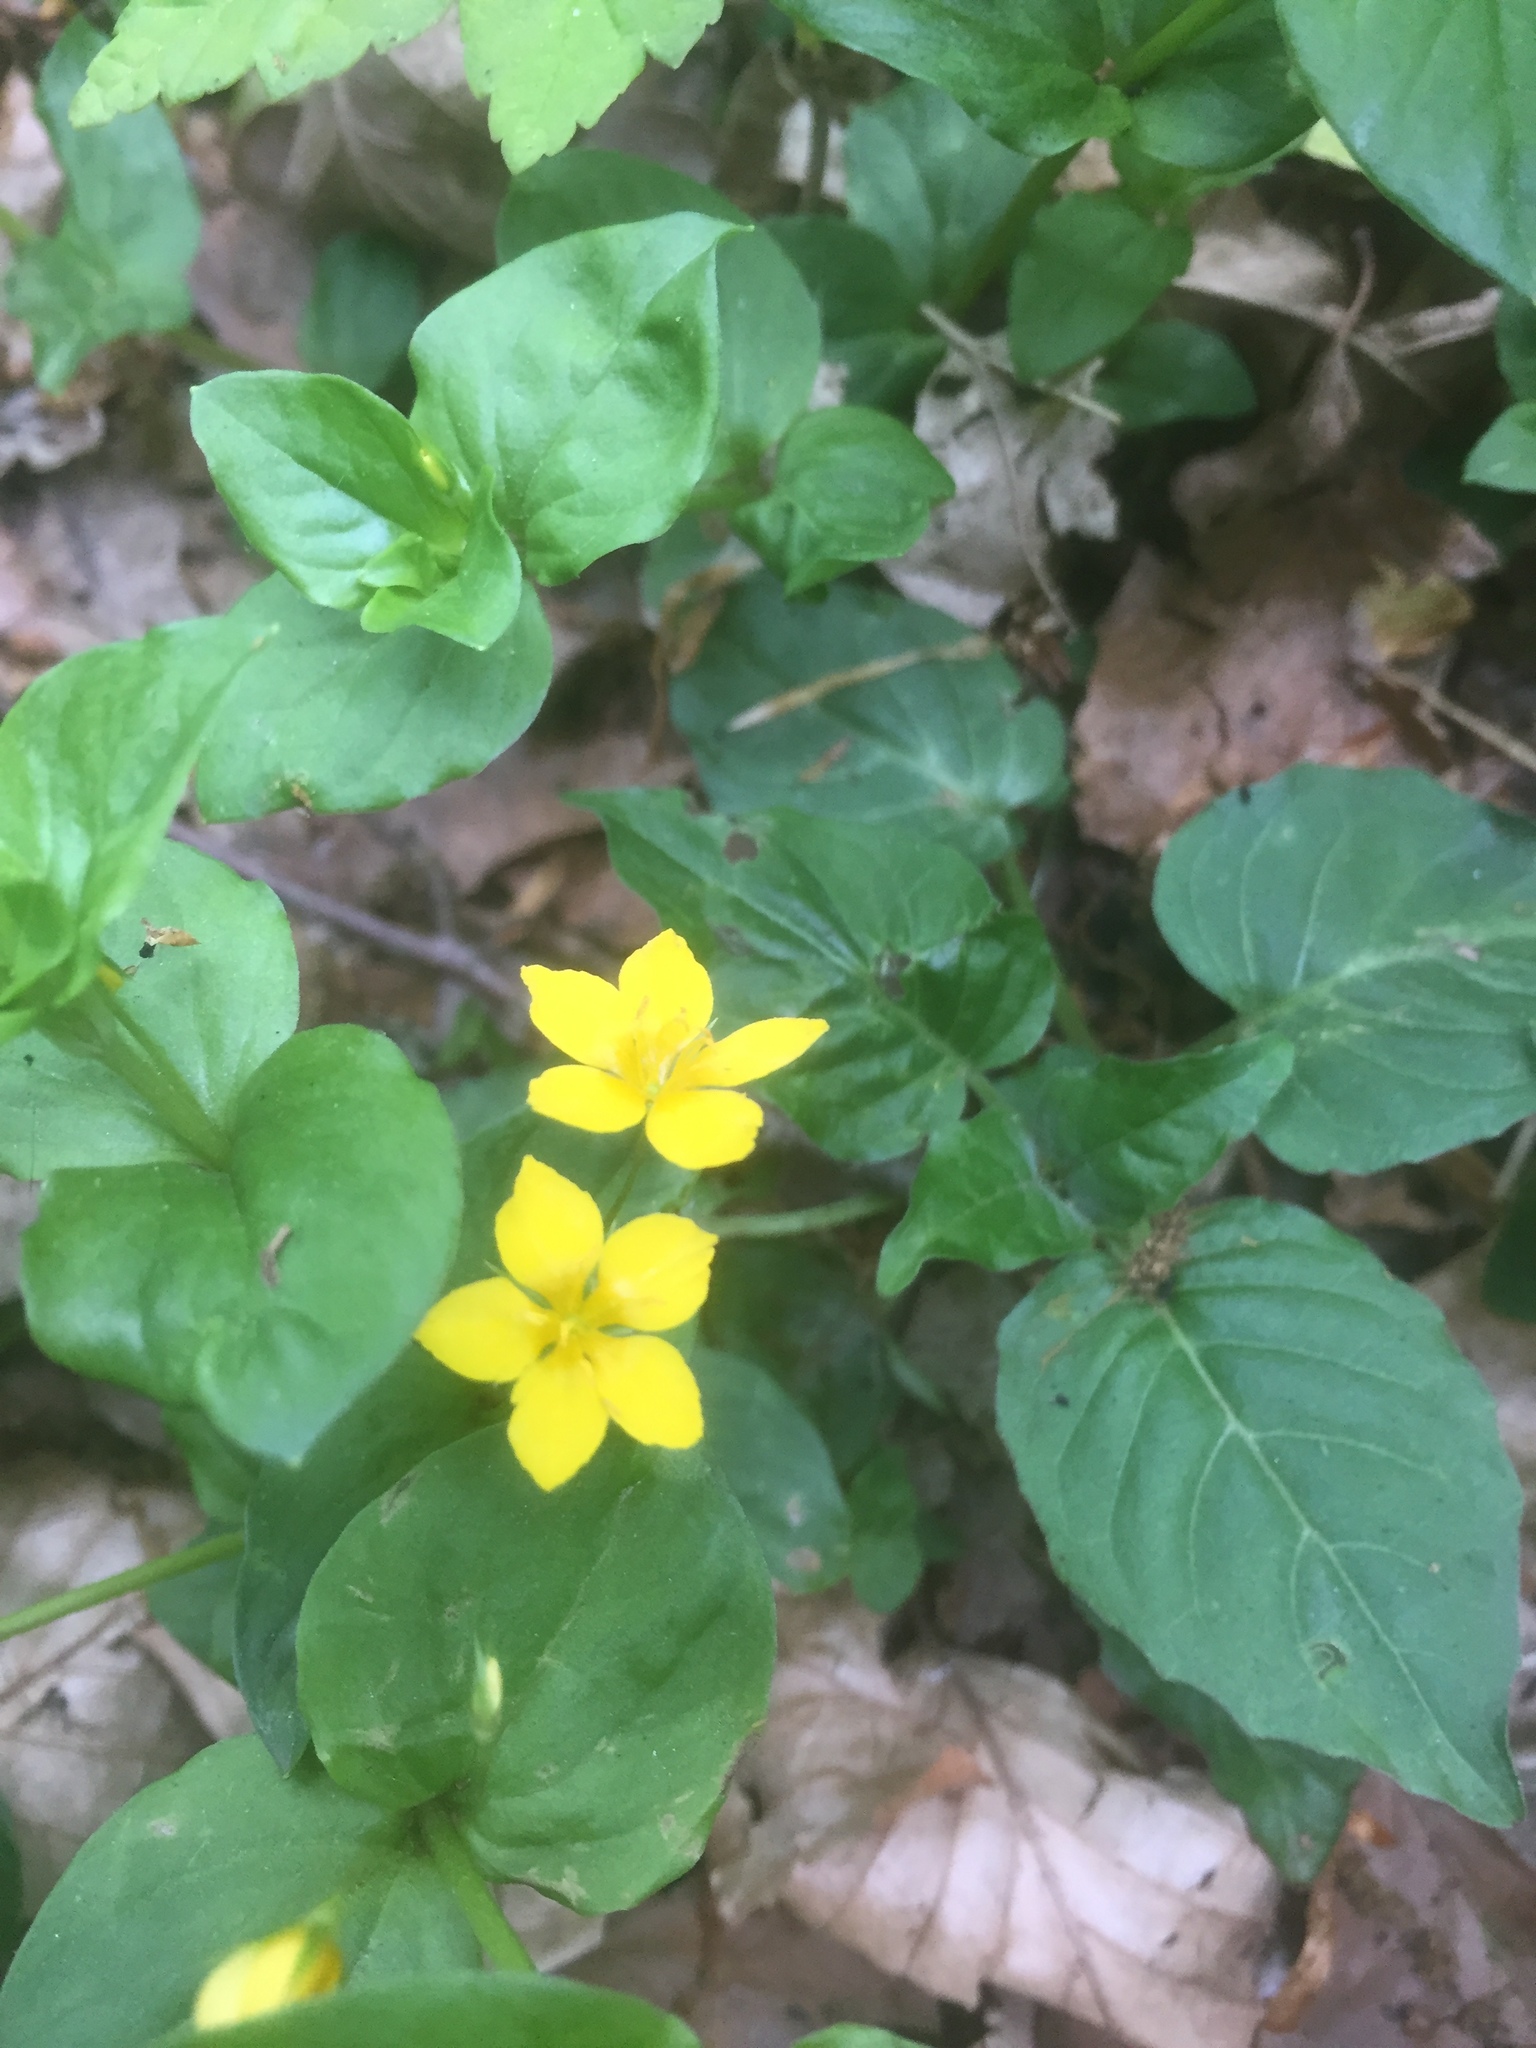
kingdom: Plantae
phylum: Tracheophyta
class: Magnoliopsida
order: Ericales
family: Primulaceae
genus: Lysimachia
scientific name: Lysimachia nemorum
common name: Yellow pimpernel
